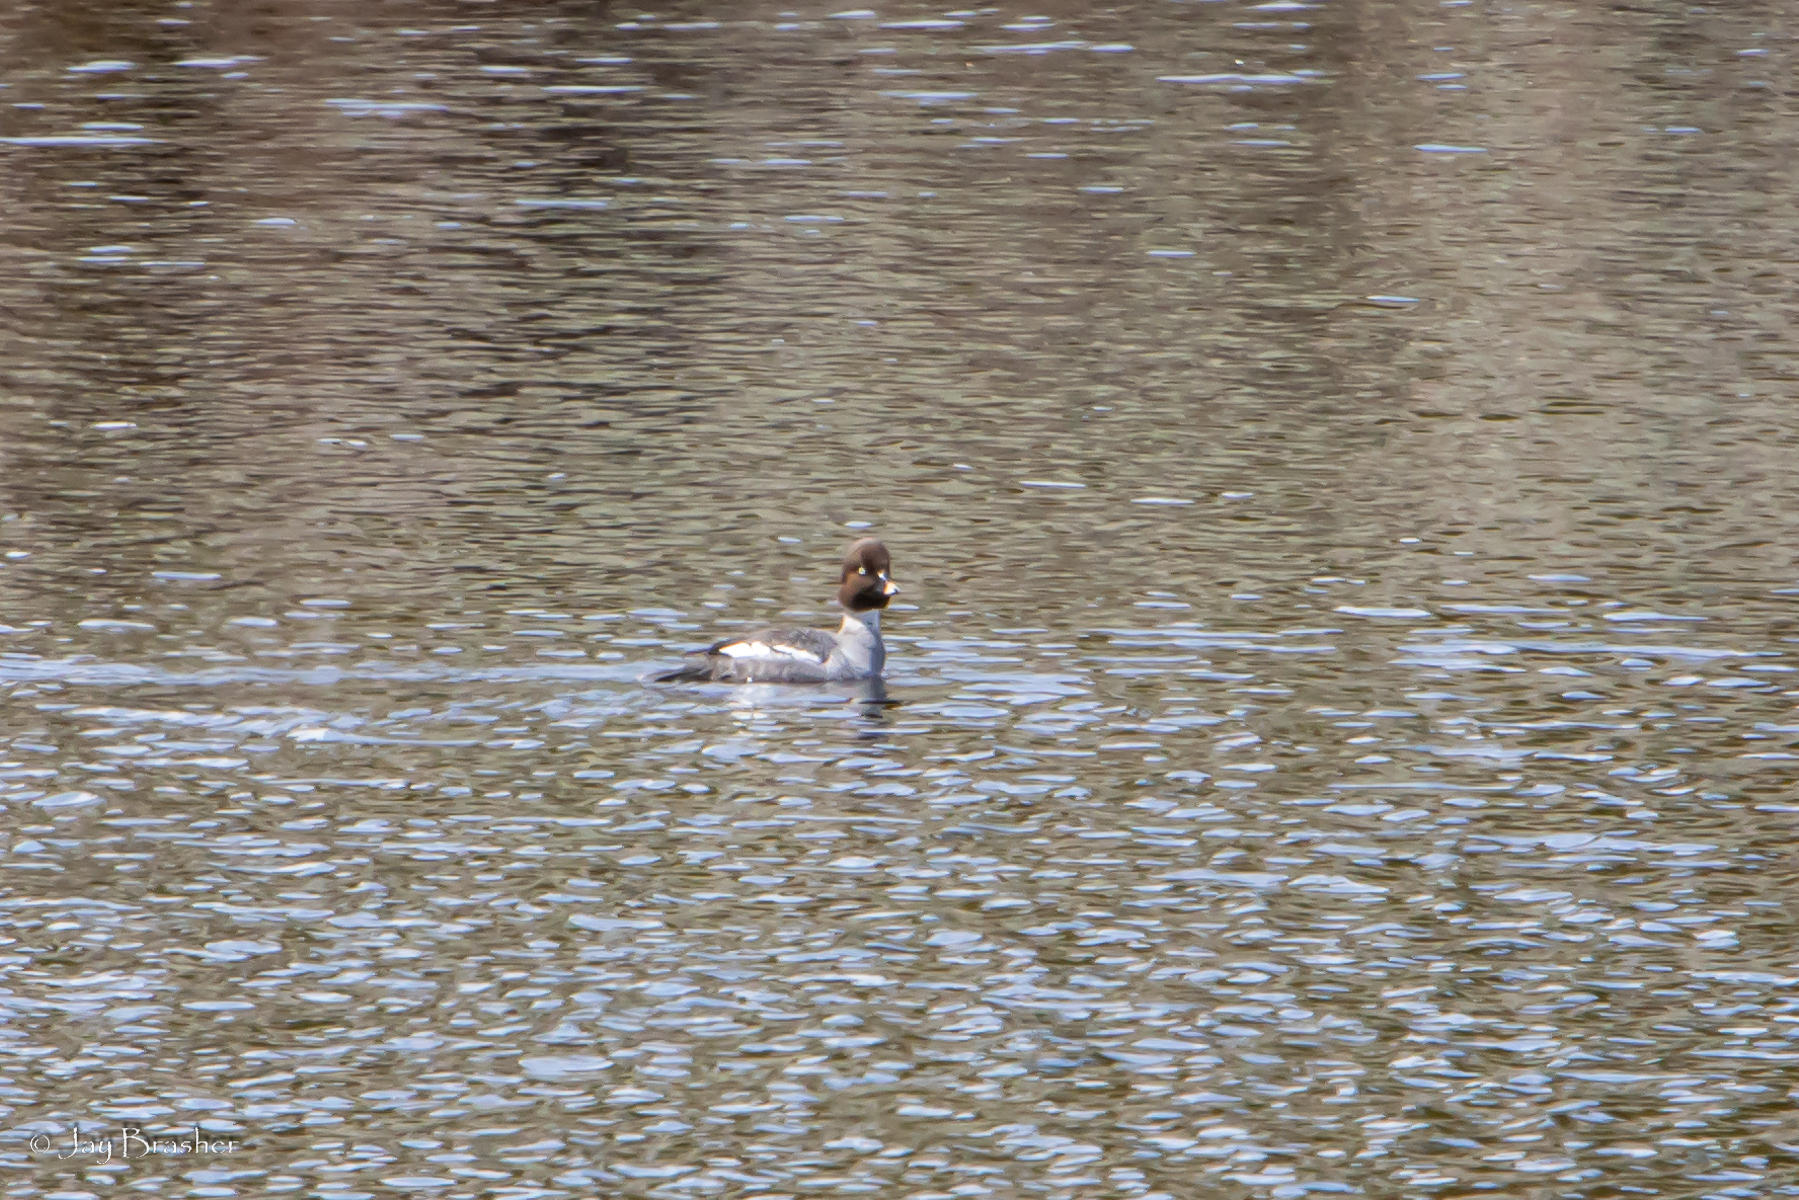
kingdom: Animalia
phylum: Chordata
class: Aves
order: Anseriformes
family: Anatidae
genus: Bucephala
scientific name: Bucephala clangula
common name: Common goldeneye
